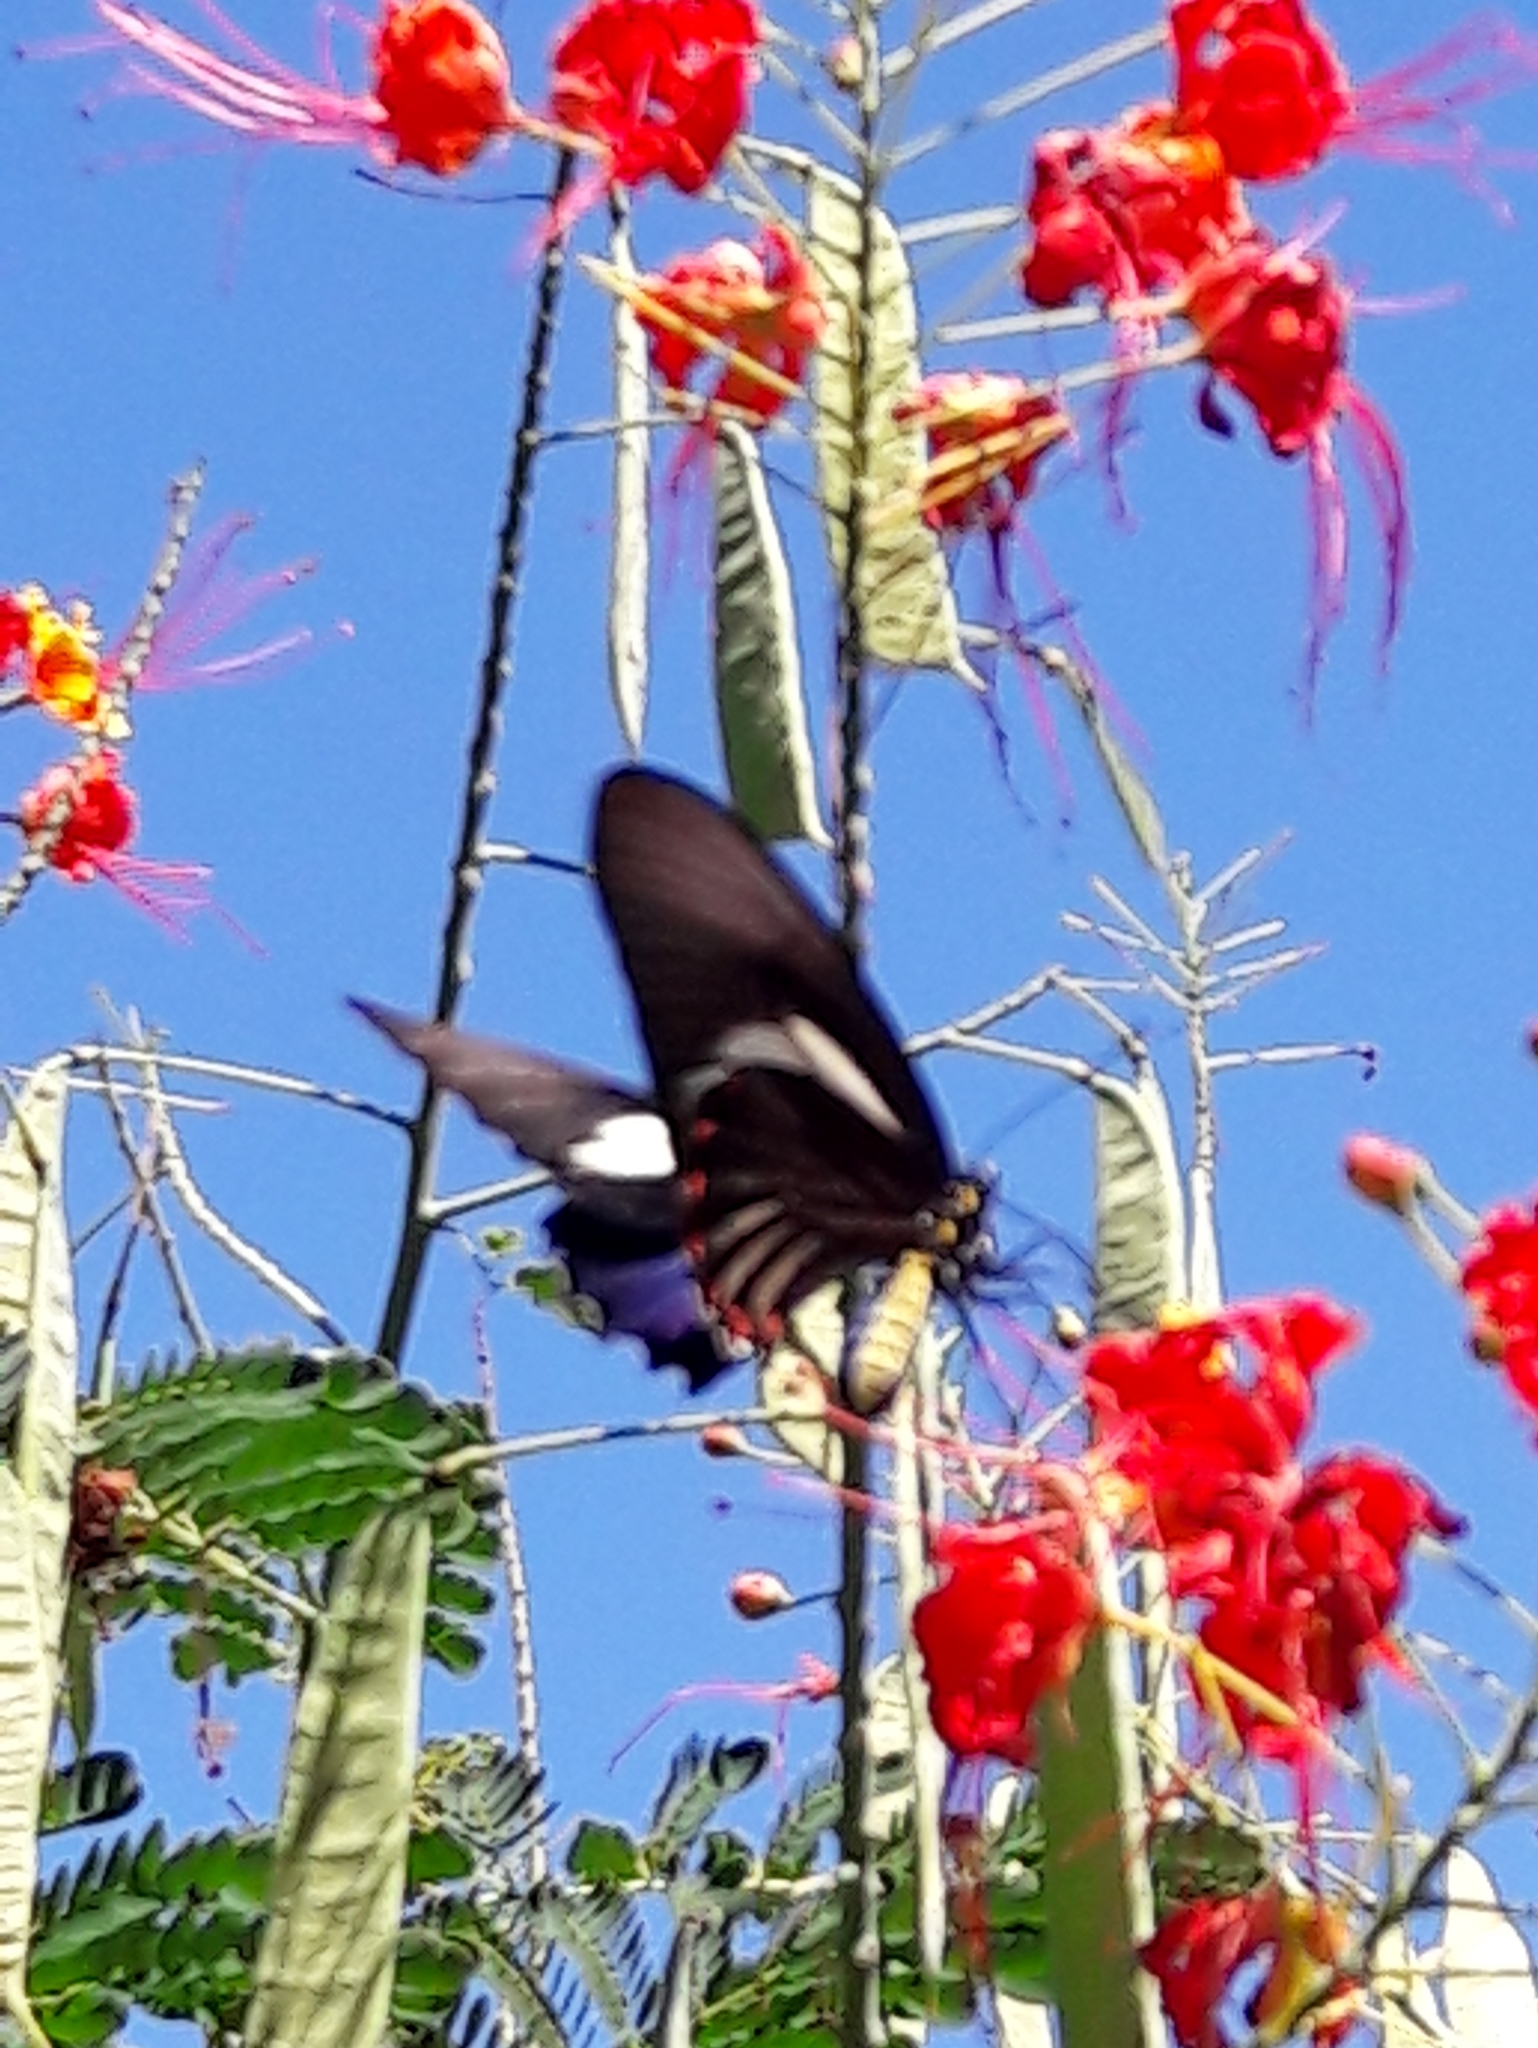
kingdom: Animalia
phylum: Arthropoda
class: Insecta
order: Lepidoptera
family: Papilionidae
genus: Battus
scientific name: Battus crassus
